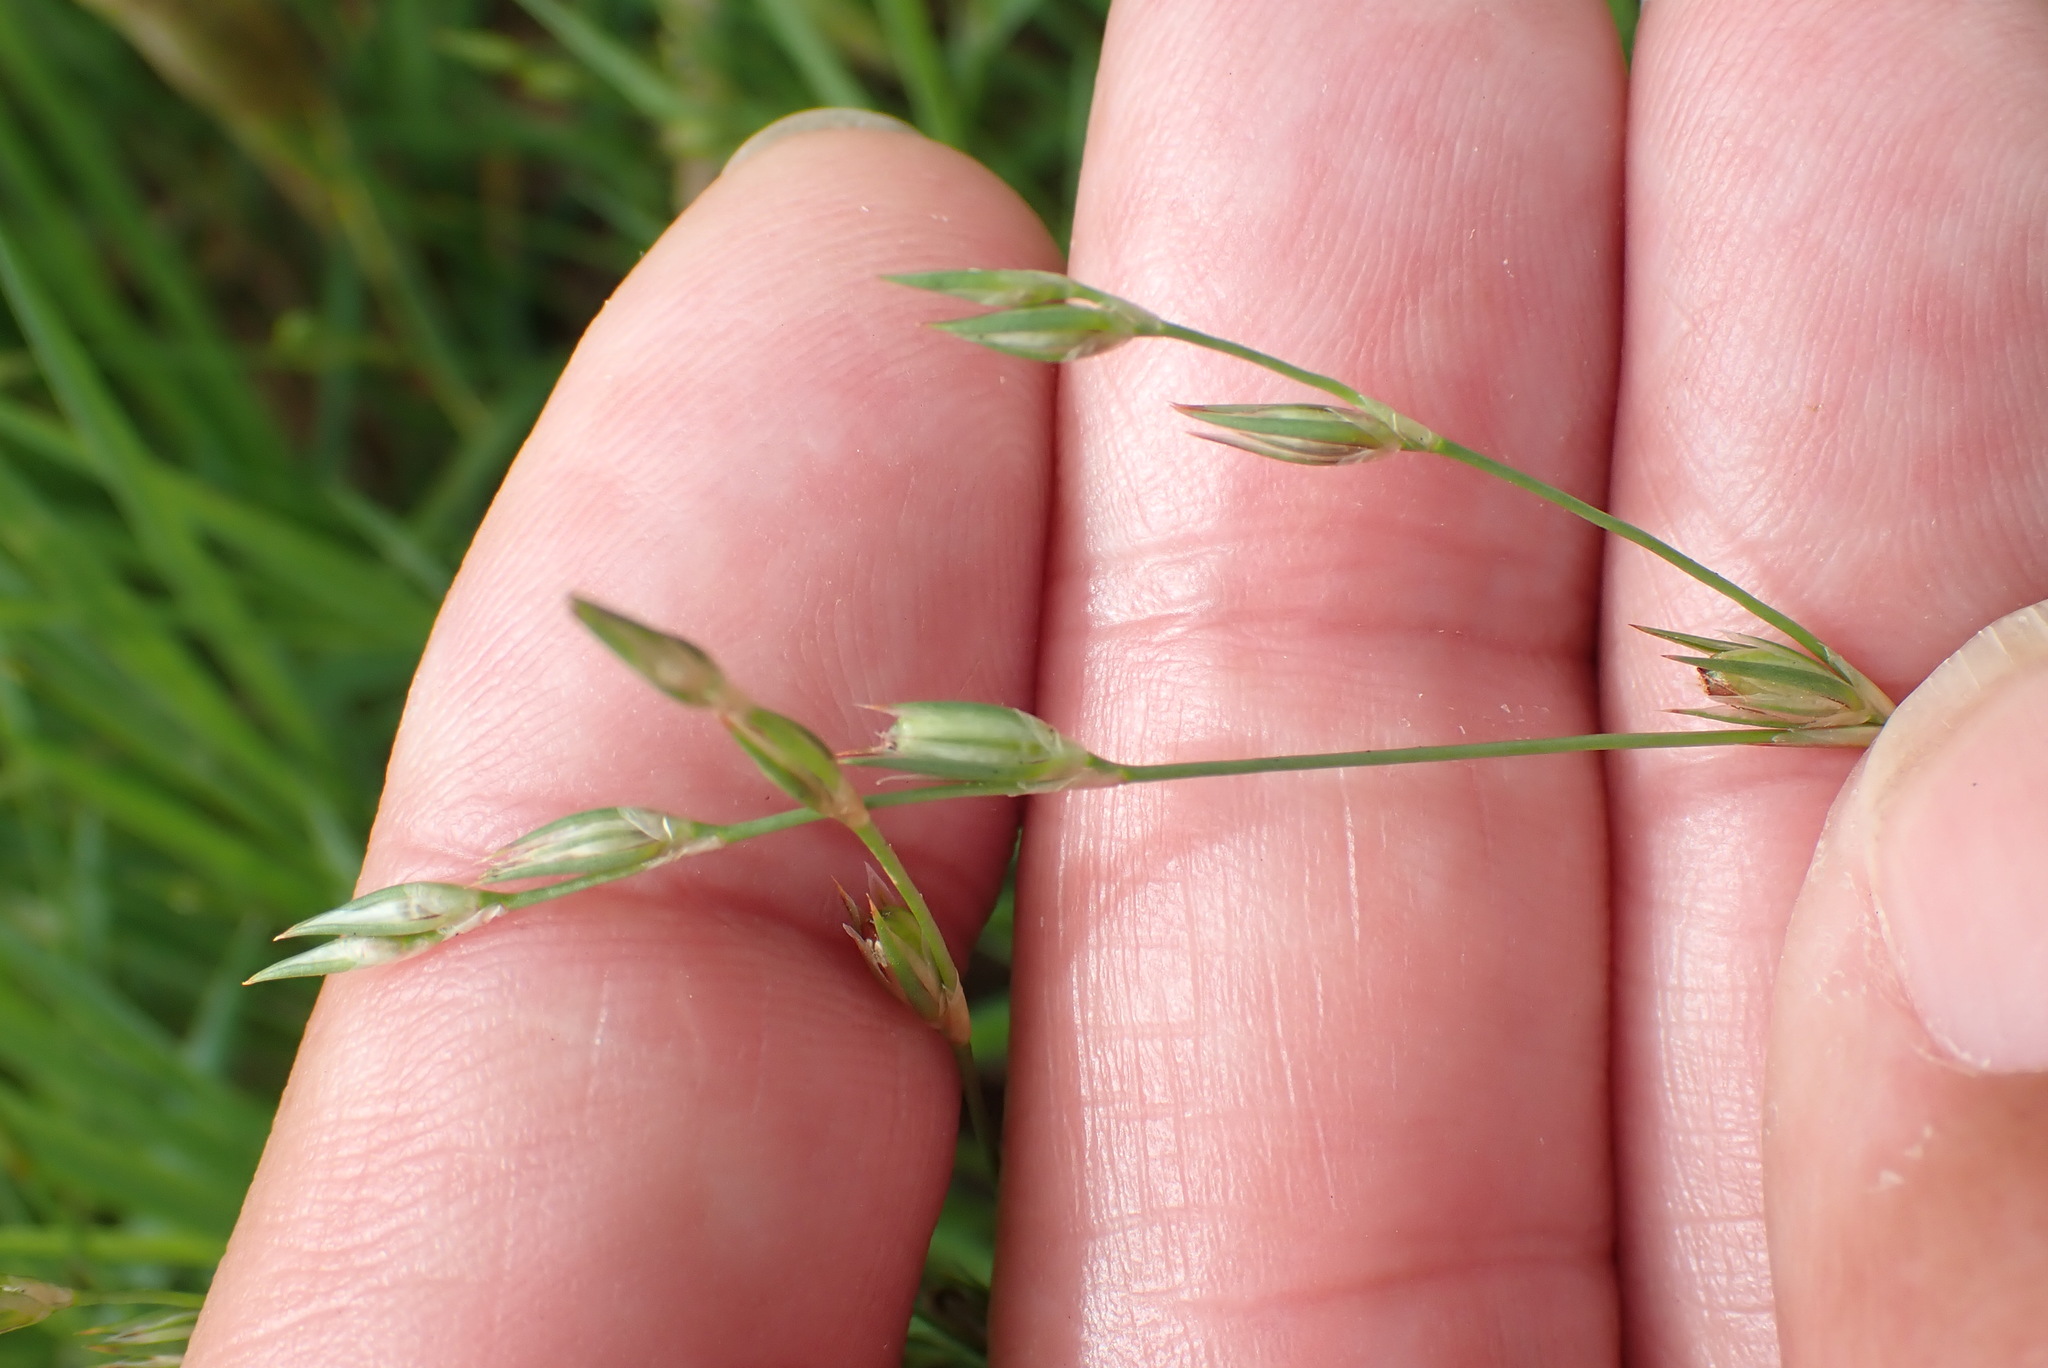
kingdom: Plantae
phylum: Tracheophyta
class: Liliopsida
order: Poales
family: Juncaceae
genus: Juncus
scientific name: Juncus bufonius
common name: Toad rush
